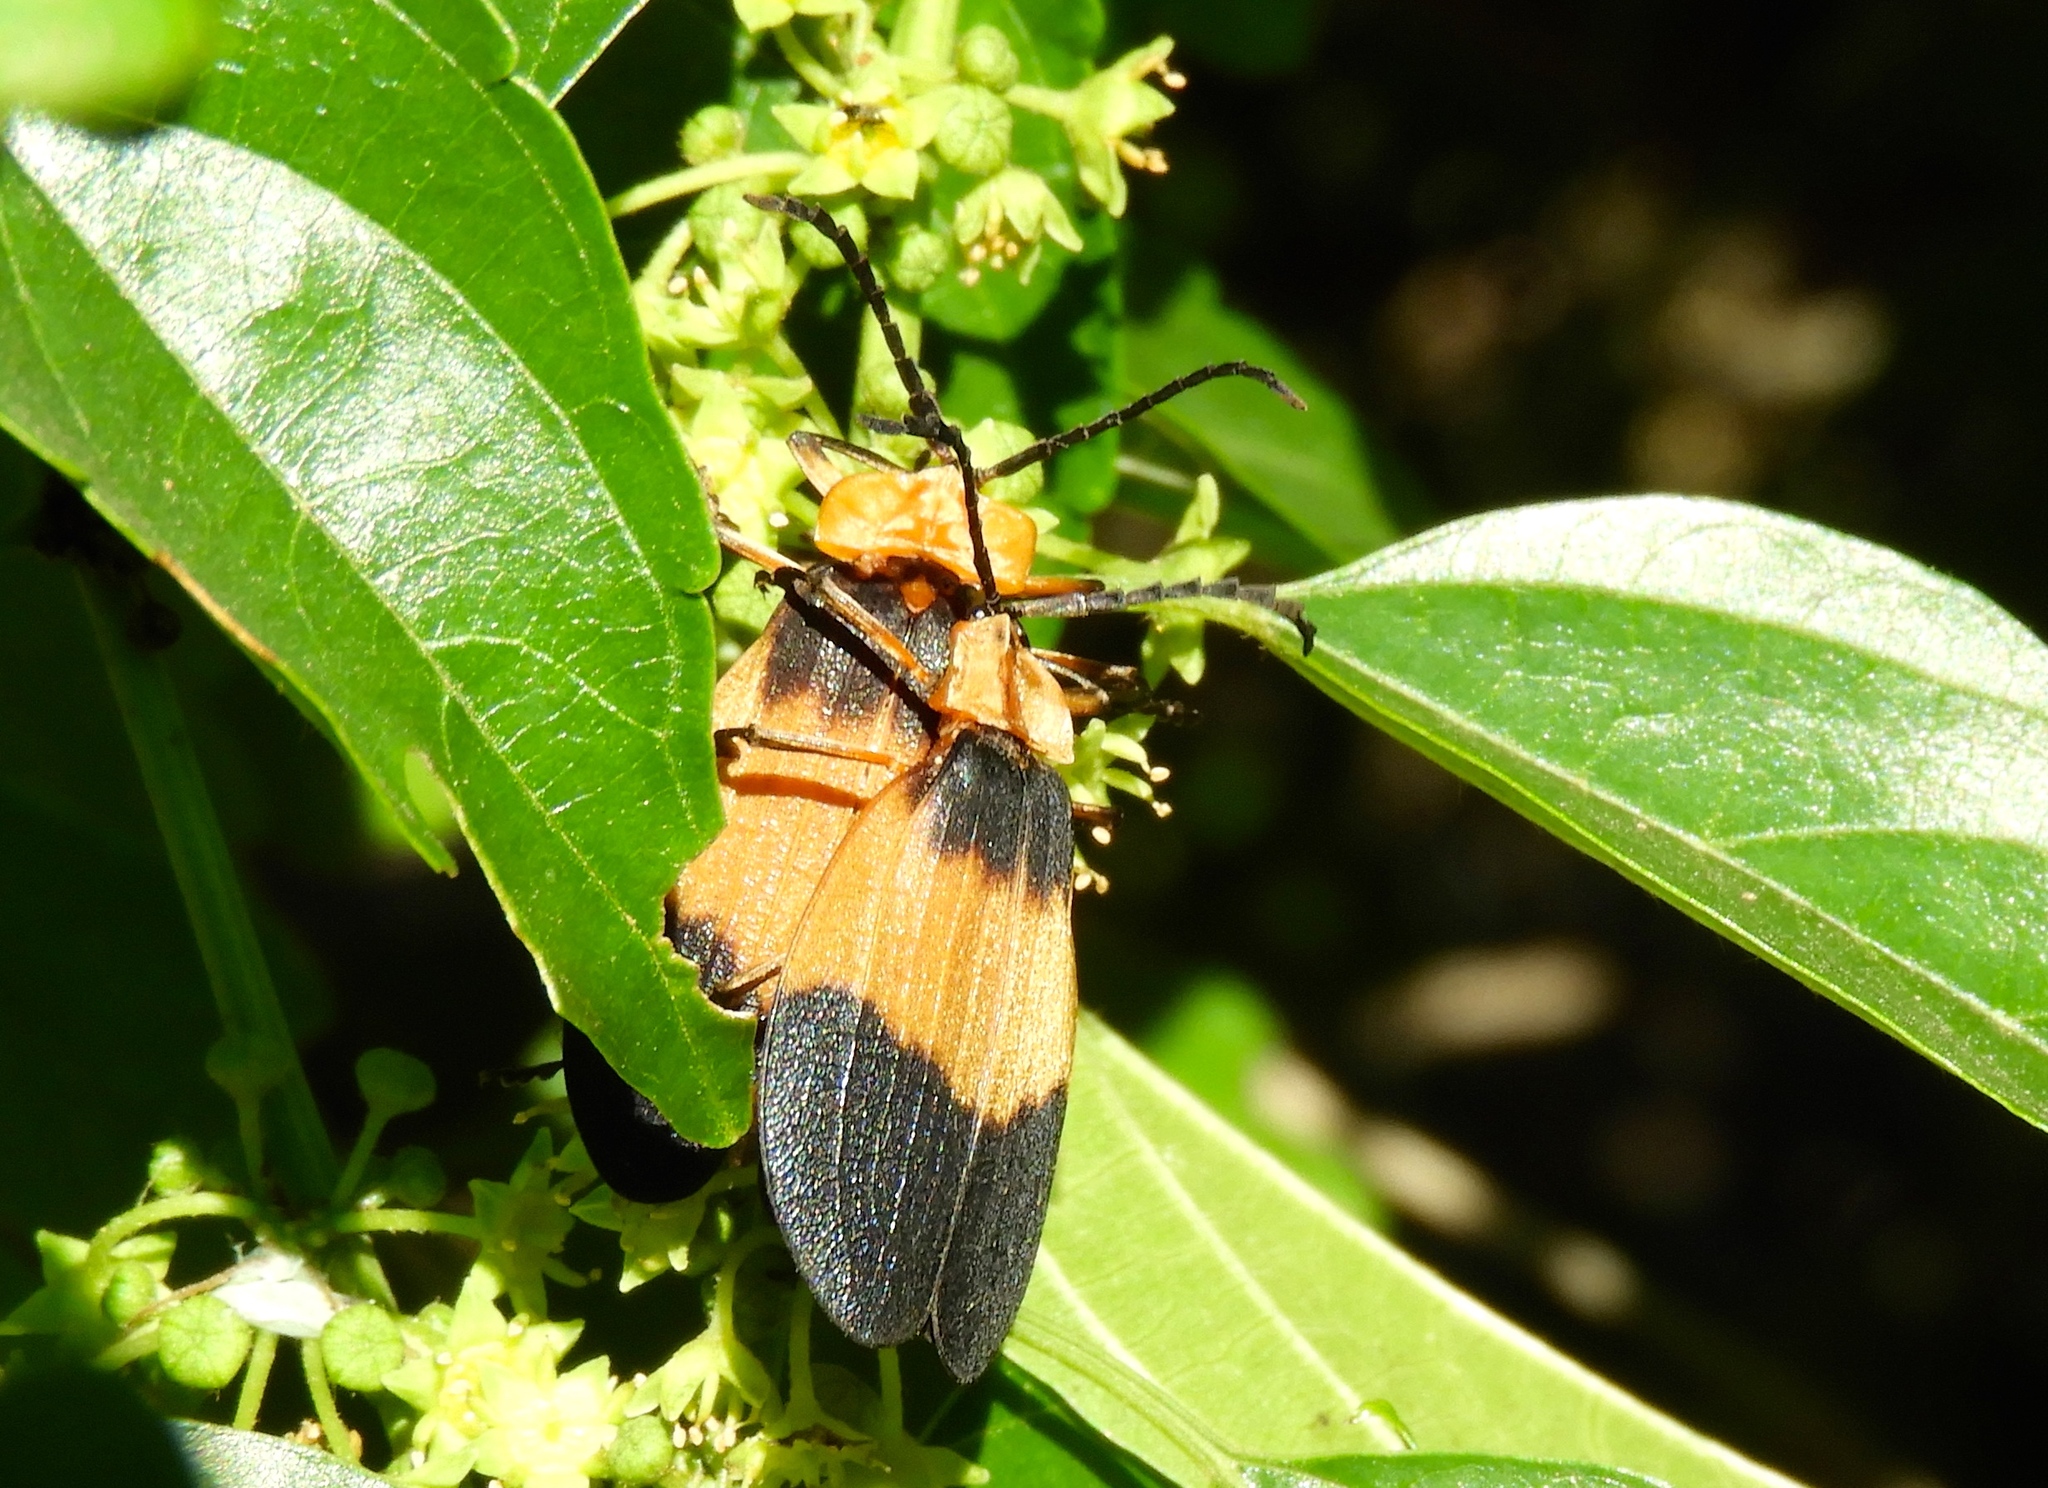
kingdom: Animalia
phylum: Arthropoda
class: Insecta
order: Coleoptera
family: Lycidae
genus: Lycus
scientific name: Lycus
